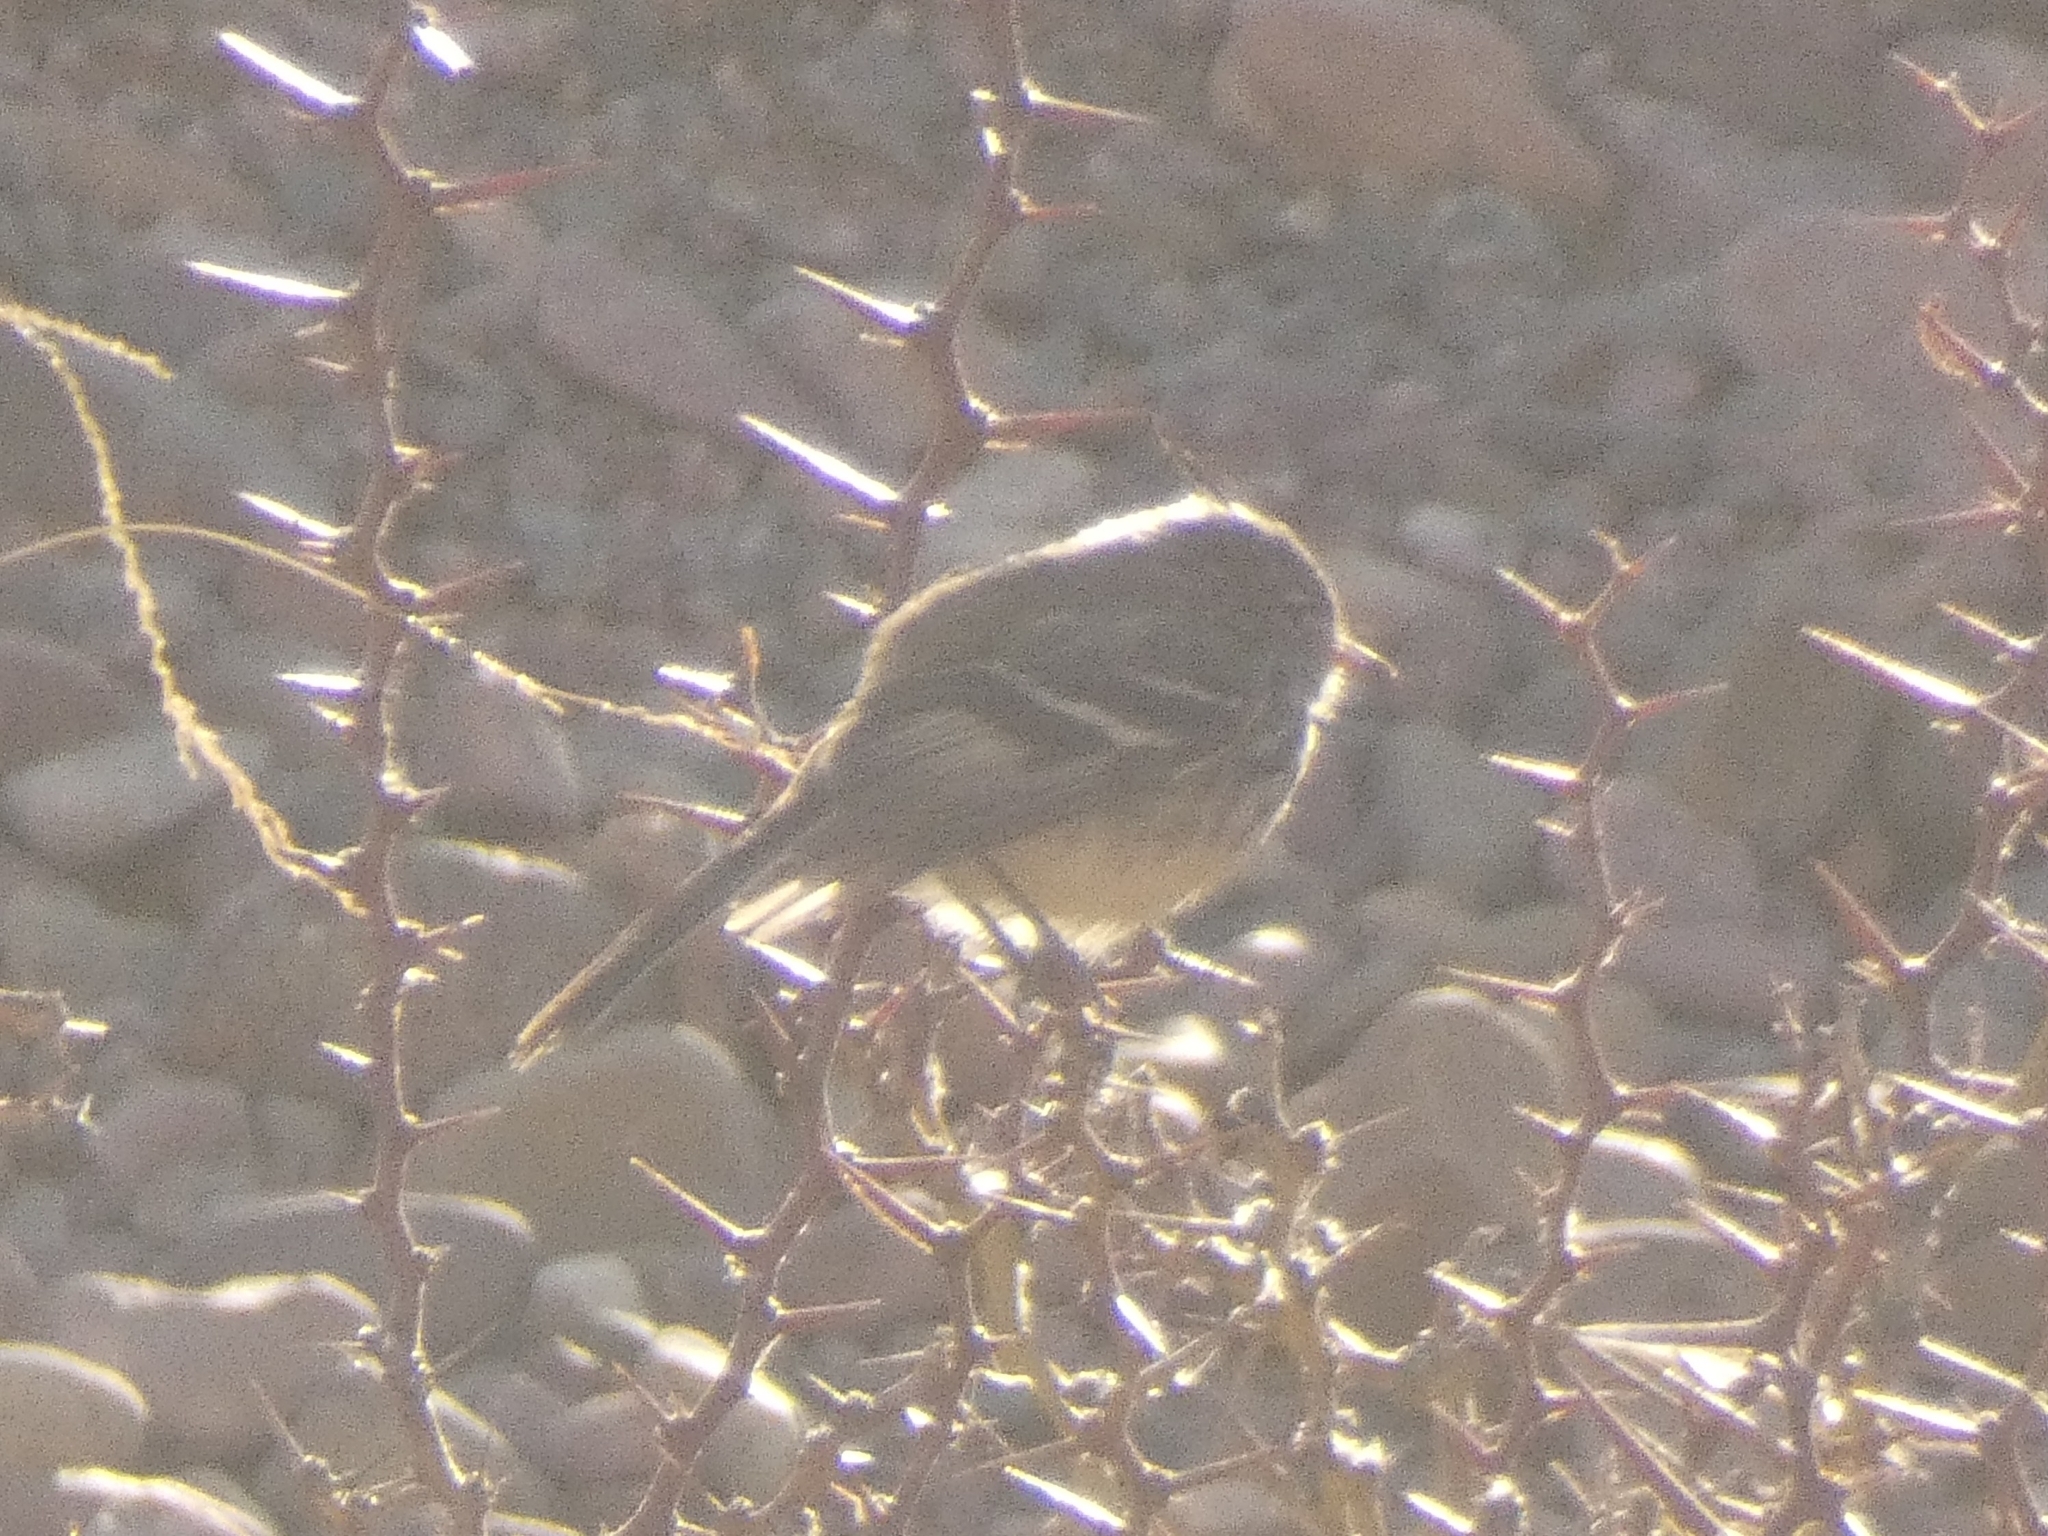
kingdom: Animalia
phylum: Chordata
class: Aves
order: Passeriformes
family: Tyrannidae
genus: Anairetes
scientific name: Anairetes flavirostris
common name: Yellow-billed tit-tyrant
